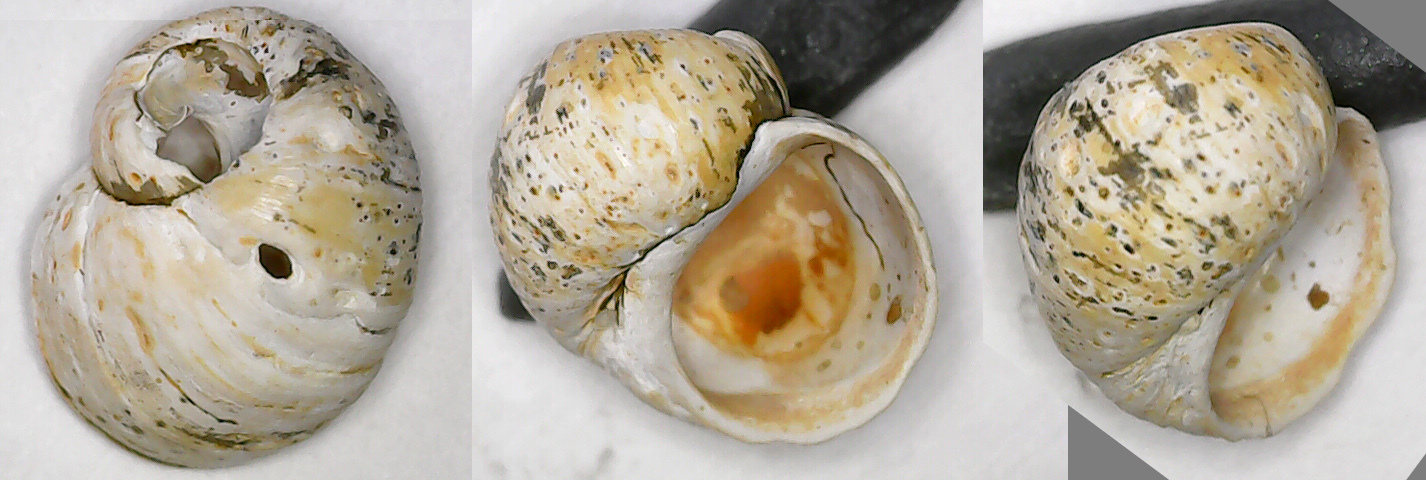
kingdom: Animalia
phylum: Mollusca
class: Gastropoda
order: Littorinimorpha
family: Lithoglyphidae
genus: Lithoglyphus
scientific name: Lithoglyphus naticoides
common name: Gravel snail
